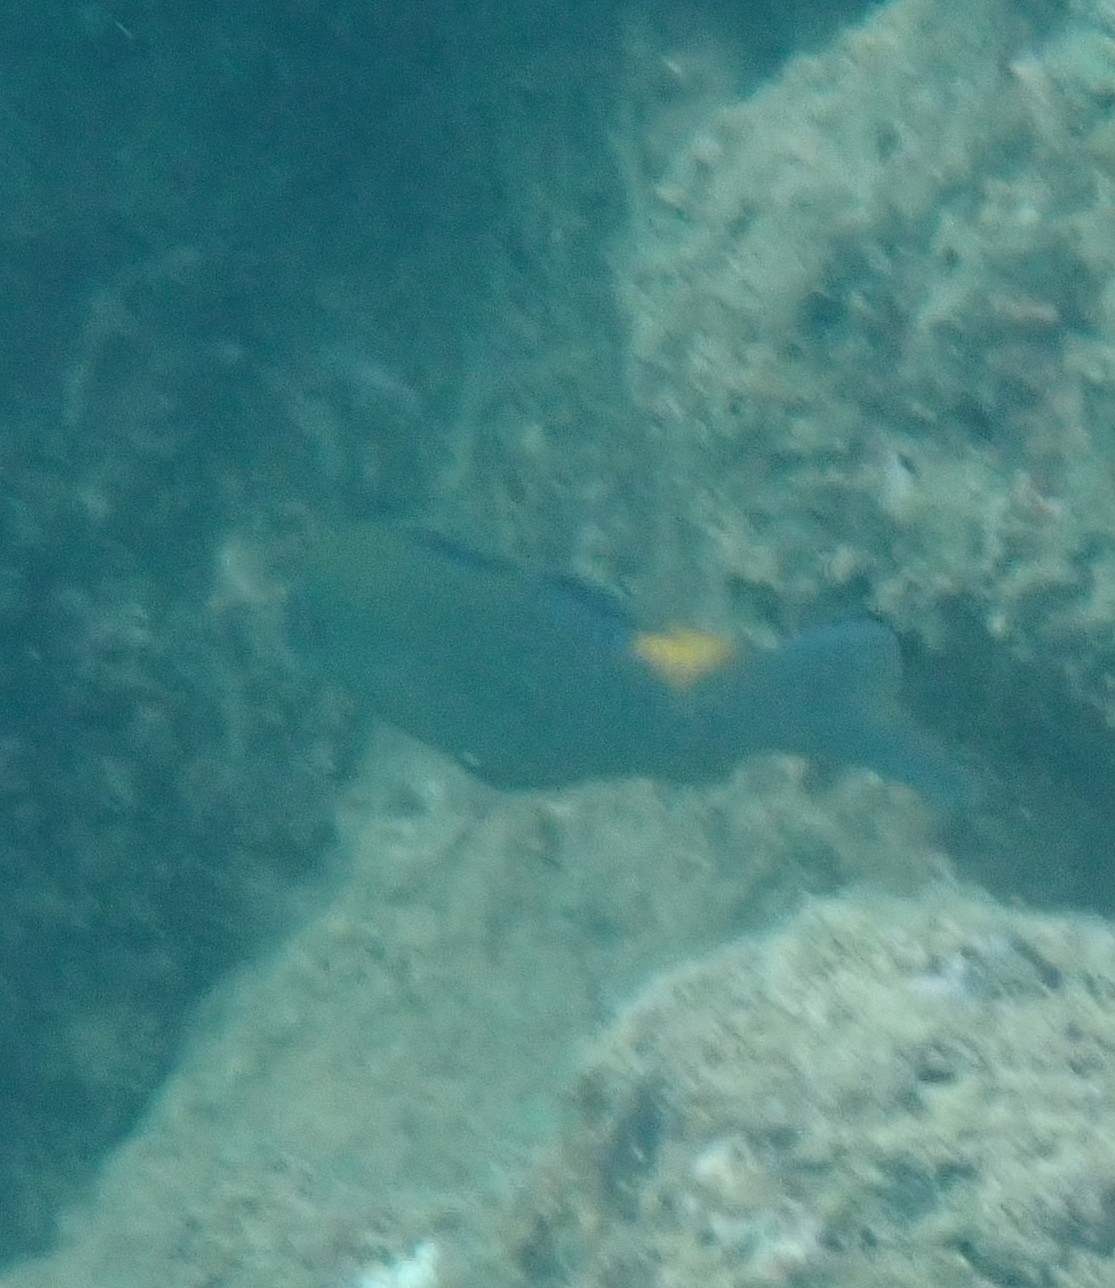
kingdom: Animalia
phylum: Chordata
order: Perciformes
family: Mullidae
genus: Parupeneus
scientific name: Parupeneus cyclostomus
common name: Goldsaddle goatfish
